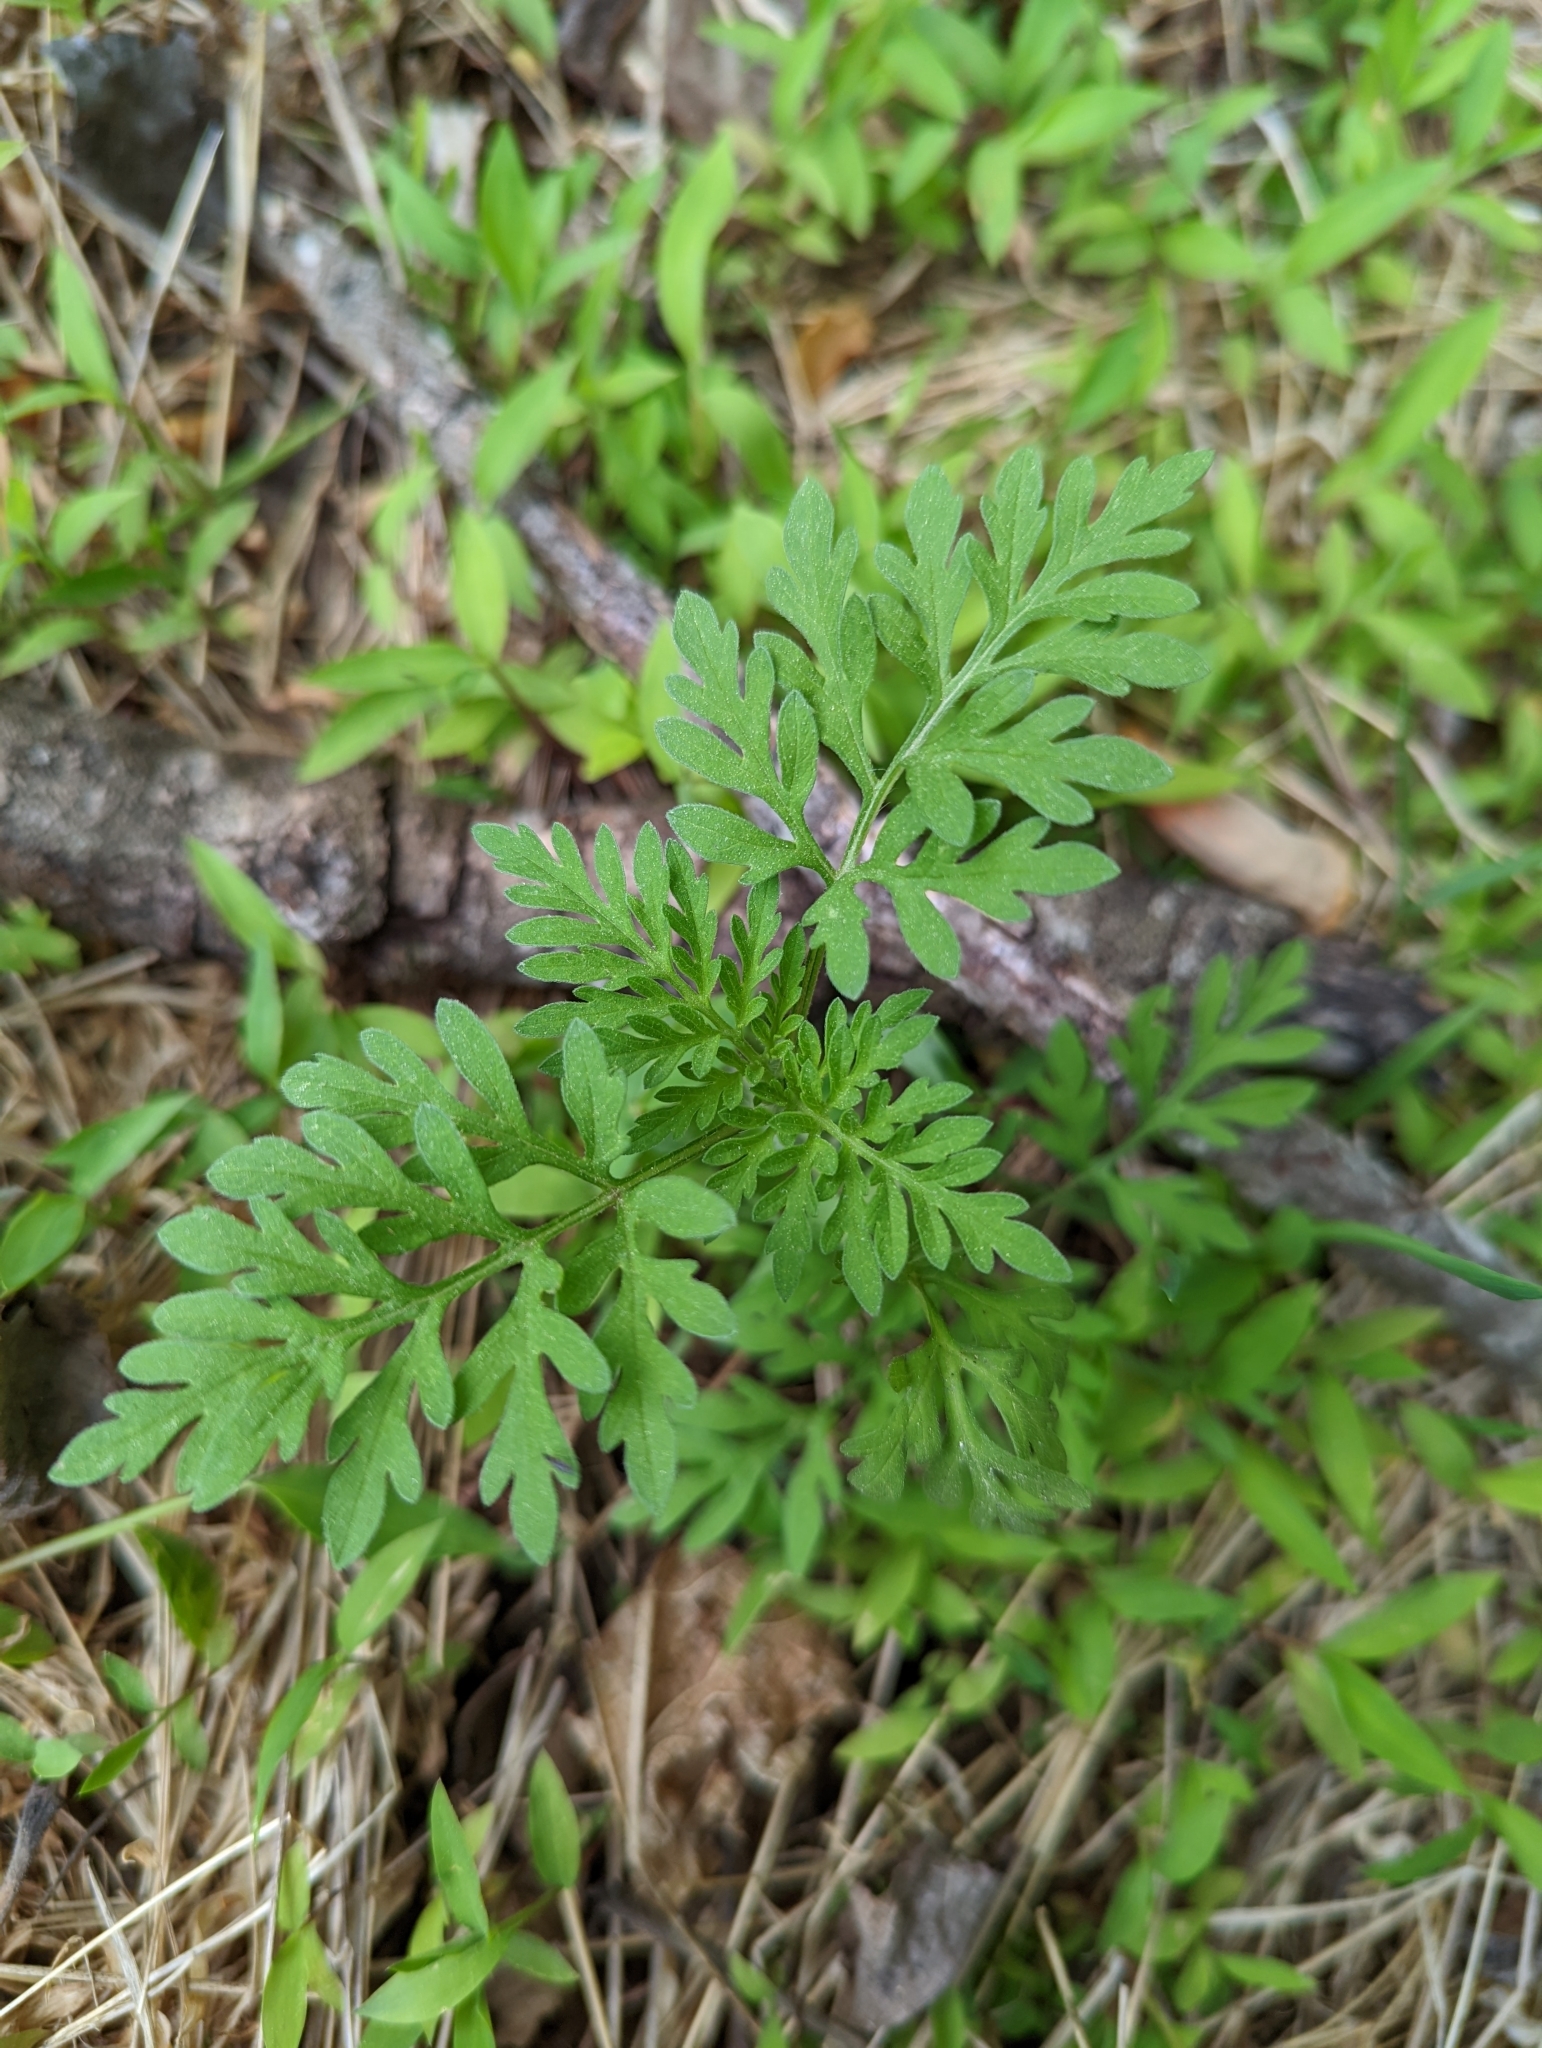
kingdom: Plantae
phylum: Tracheophyta
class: Magnoliopsida
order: Asterales
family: Asteraceae
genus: Ambrosia
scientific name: Ambrosia artemisiifolia
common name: Annual ragweed
